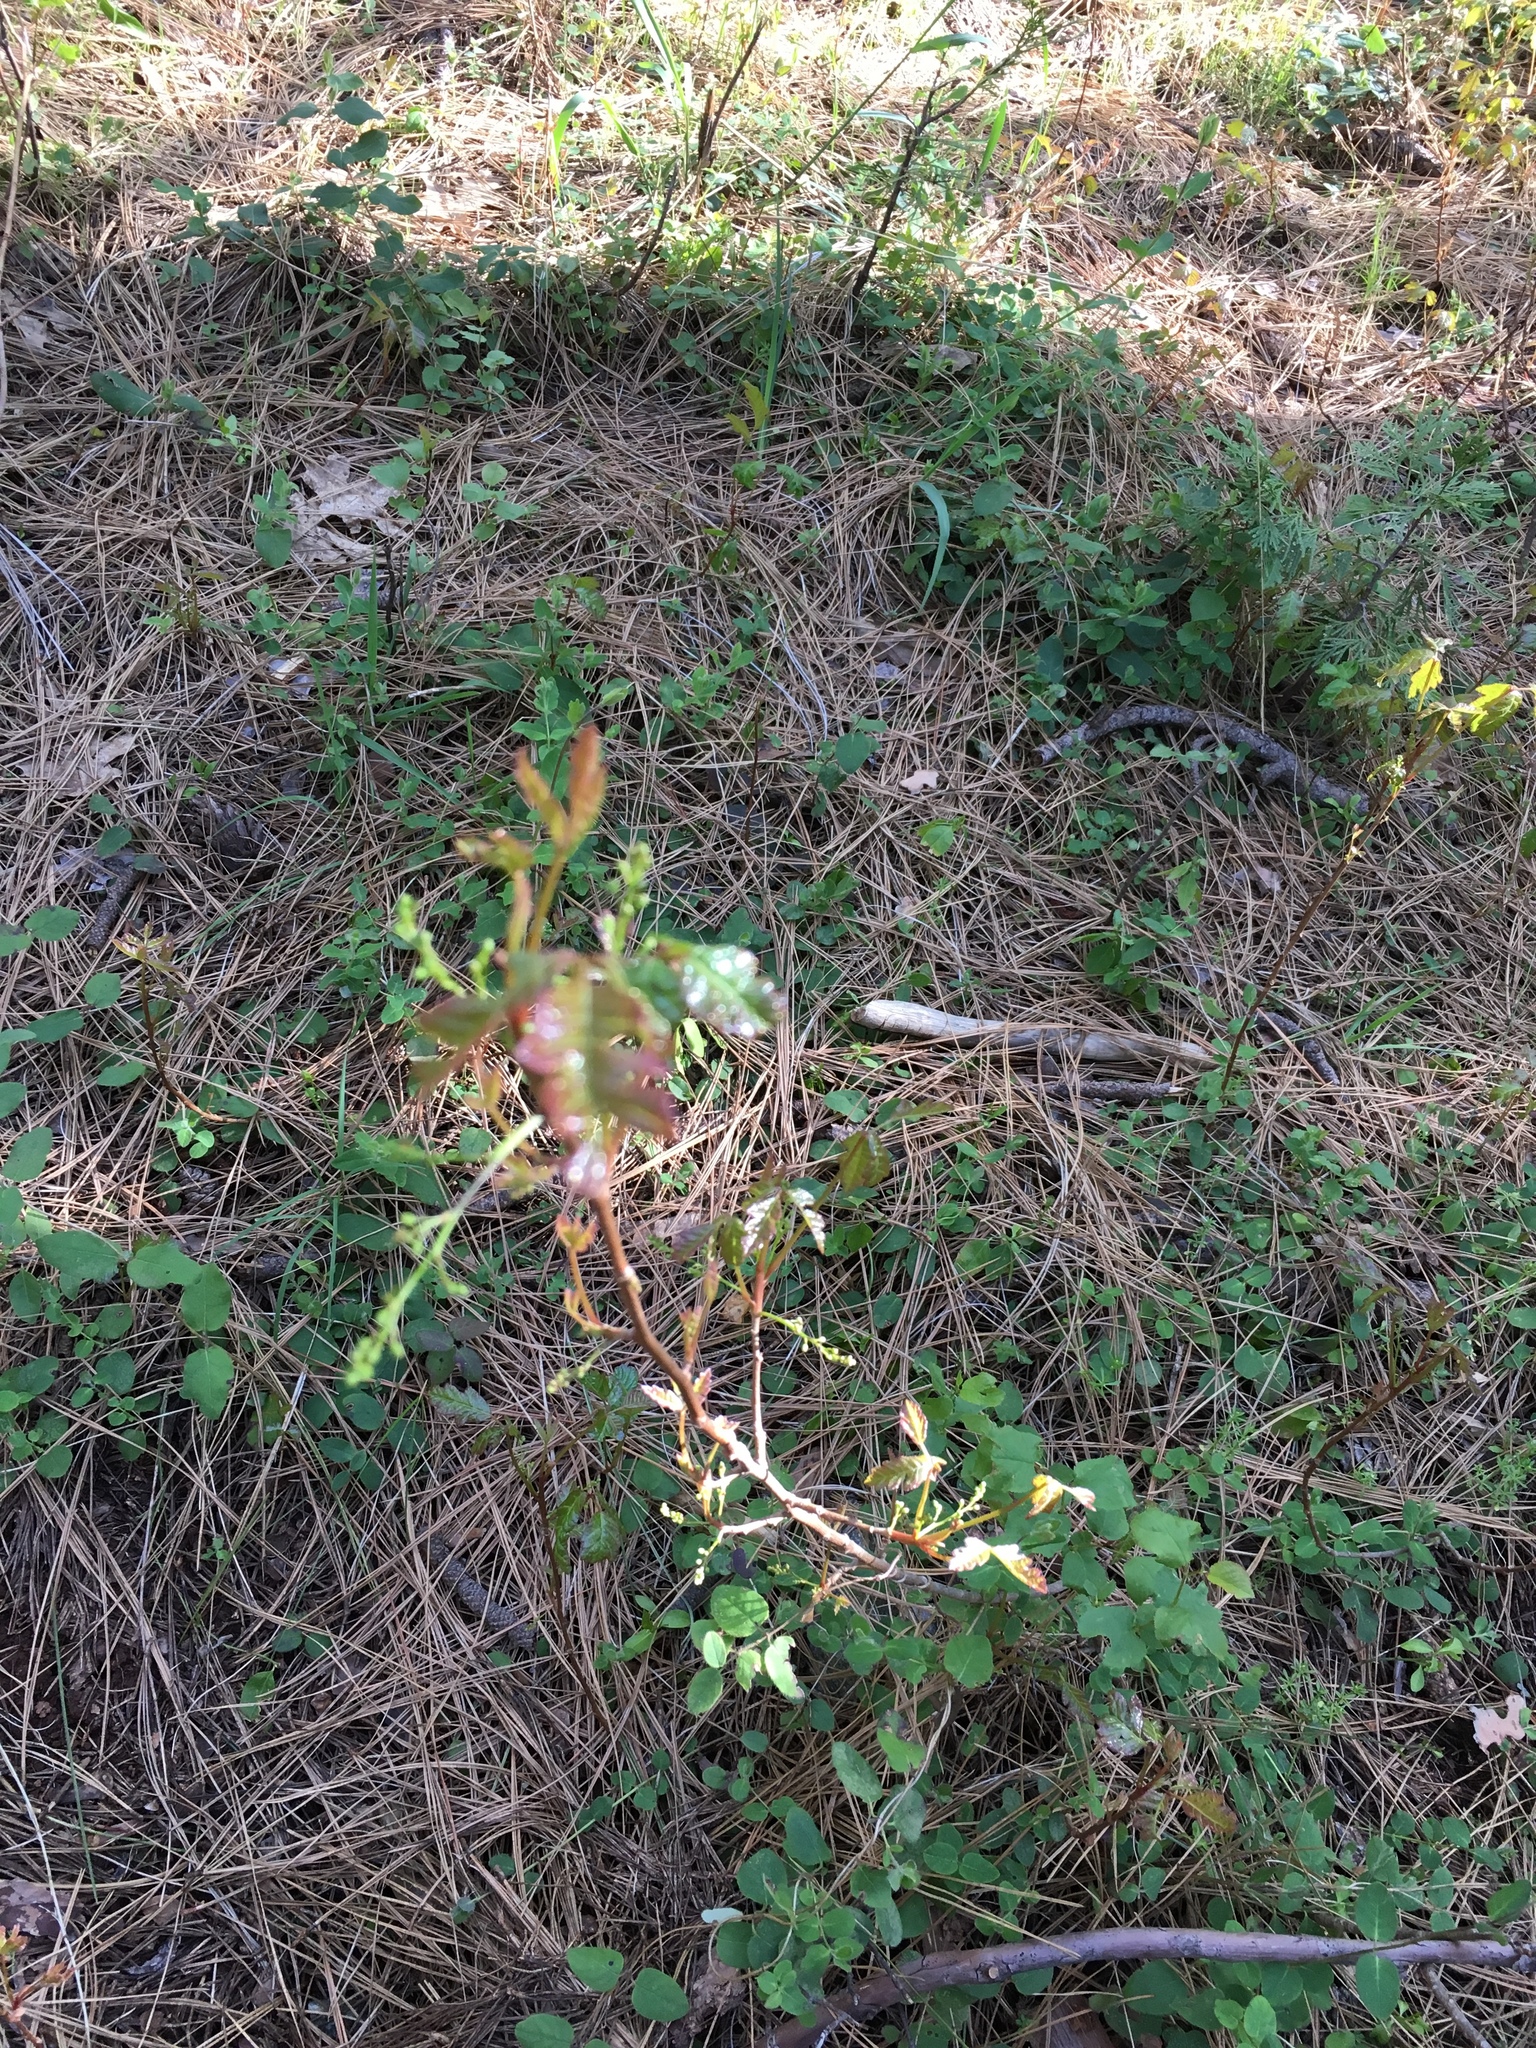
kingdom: Plantae
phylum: Tracheophyta
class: Magnoliopsida
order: Sapindales
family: Anacardiaceae
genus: Toxicodendron
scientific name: Toxicodendron diversilobum
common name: Pacific poison-oak
